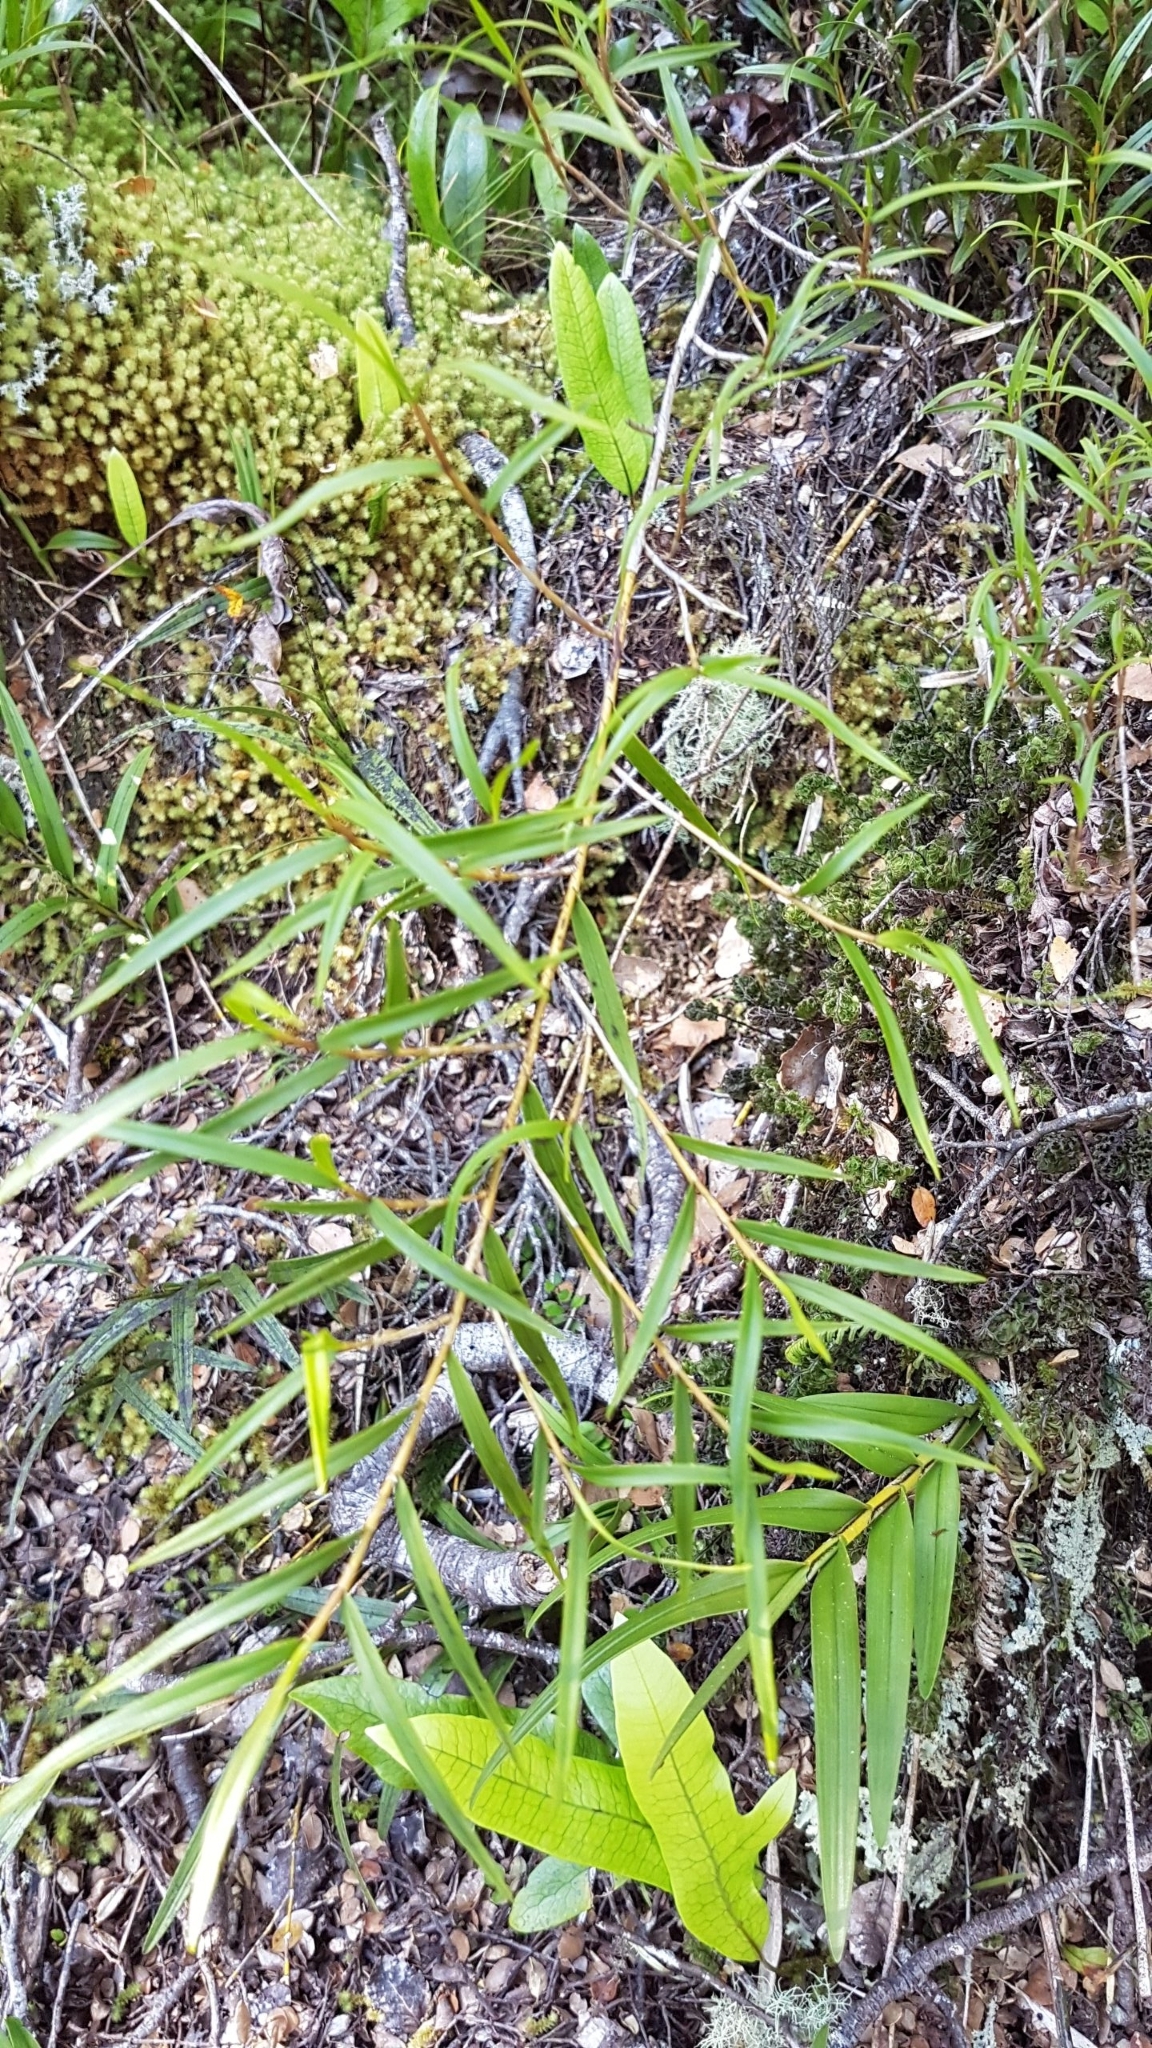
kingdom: Plantae
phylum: Tracheophyta
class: Liliopsida
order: Asparagales
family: Orchidaceae
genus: Dendrobium
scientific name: Dendrobium cunninghamii
